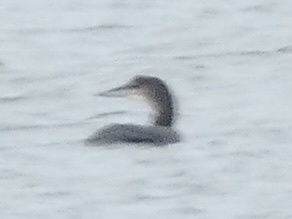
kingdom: Animalia
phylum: Chordata
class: Aves
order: Gaviiformes
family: Gaviidae
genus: Gavia
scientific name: Gavia immer
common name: Common loon
